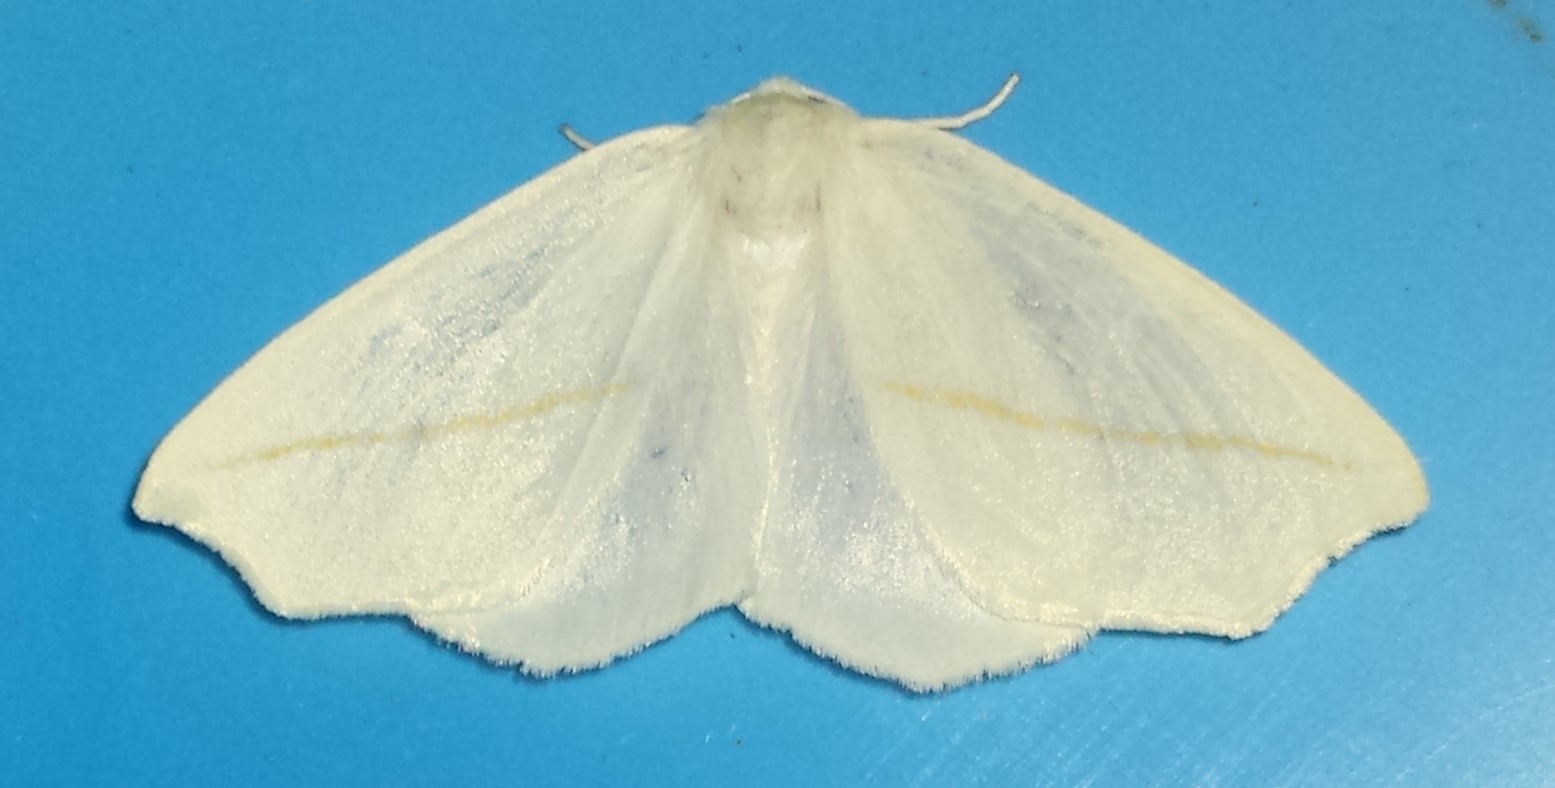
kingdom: Animalia
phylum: Arthropoda
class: Insecta
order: Lepidoptera
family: Geometridae
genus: Tetracis
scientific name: Tetracis cachexiata
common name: White slant-line
